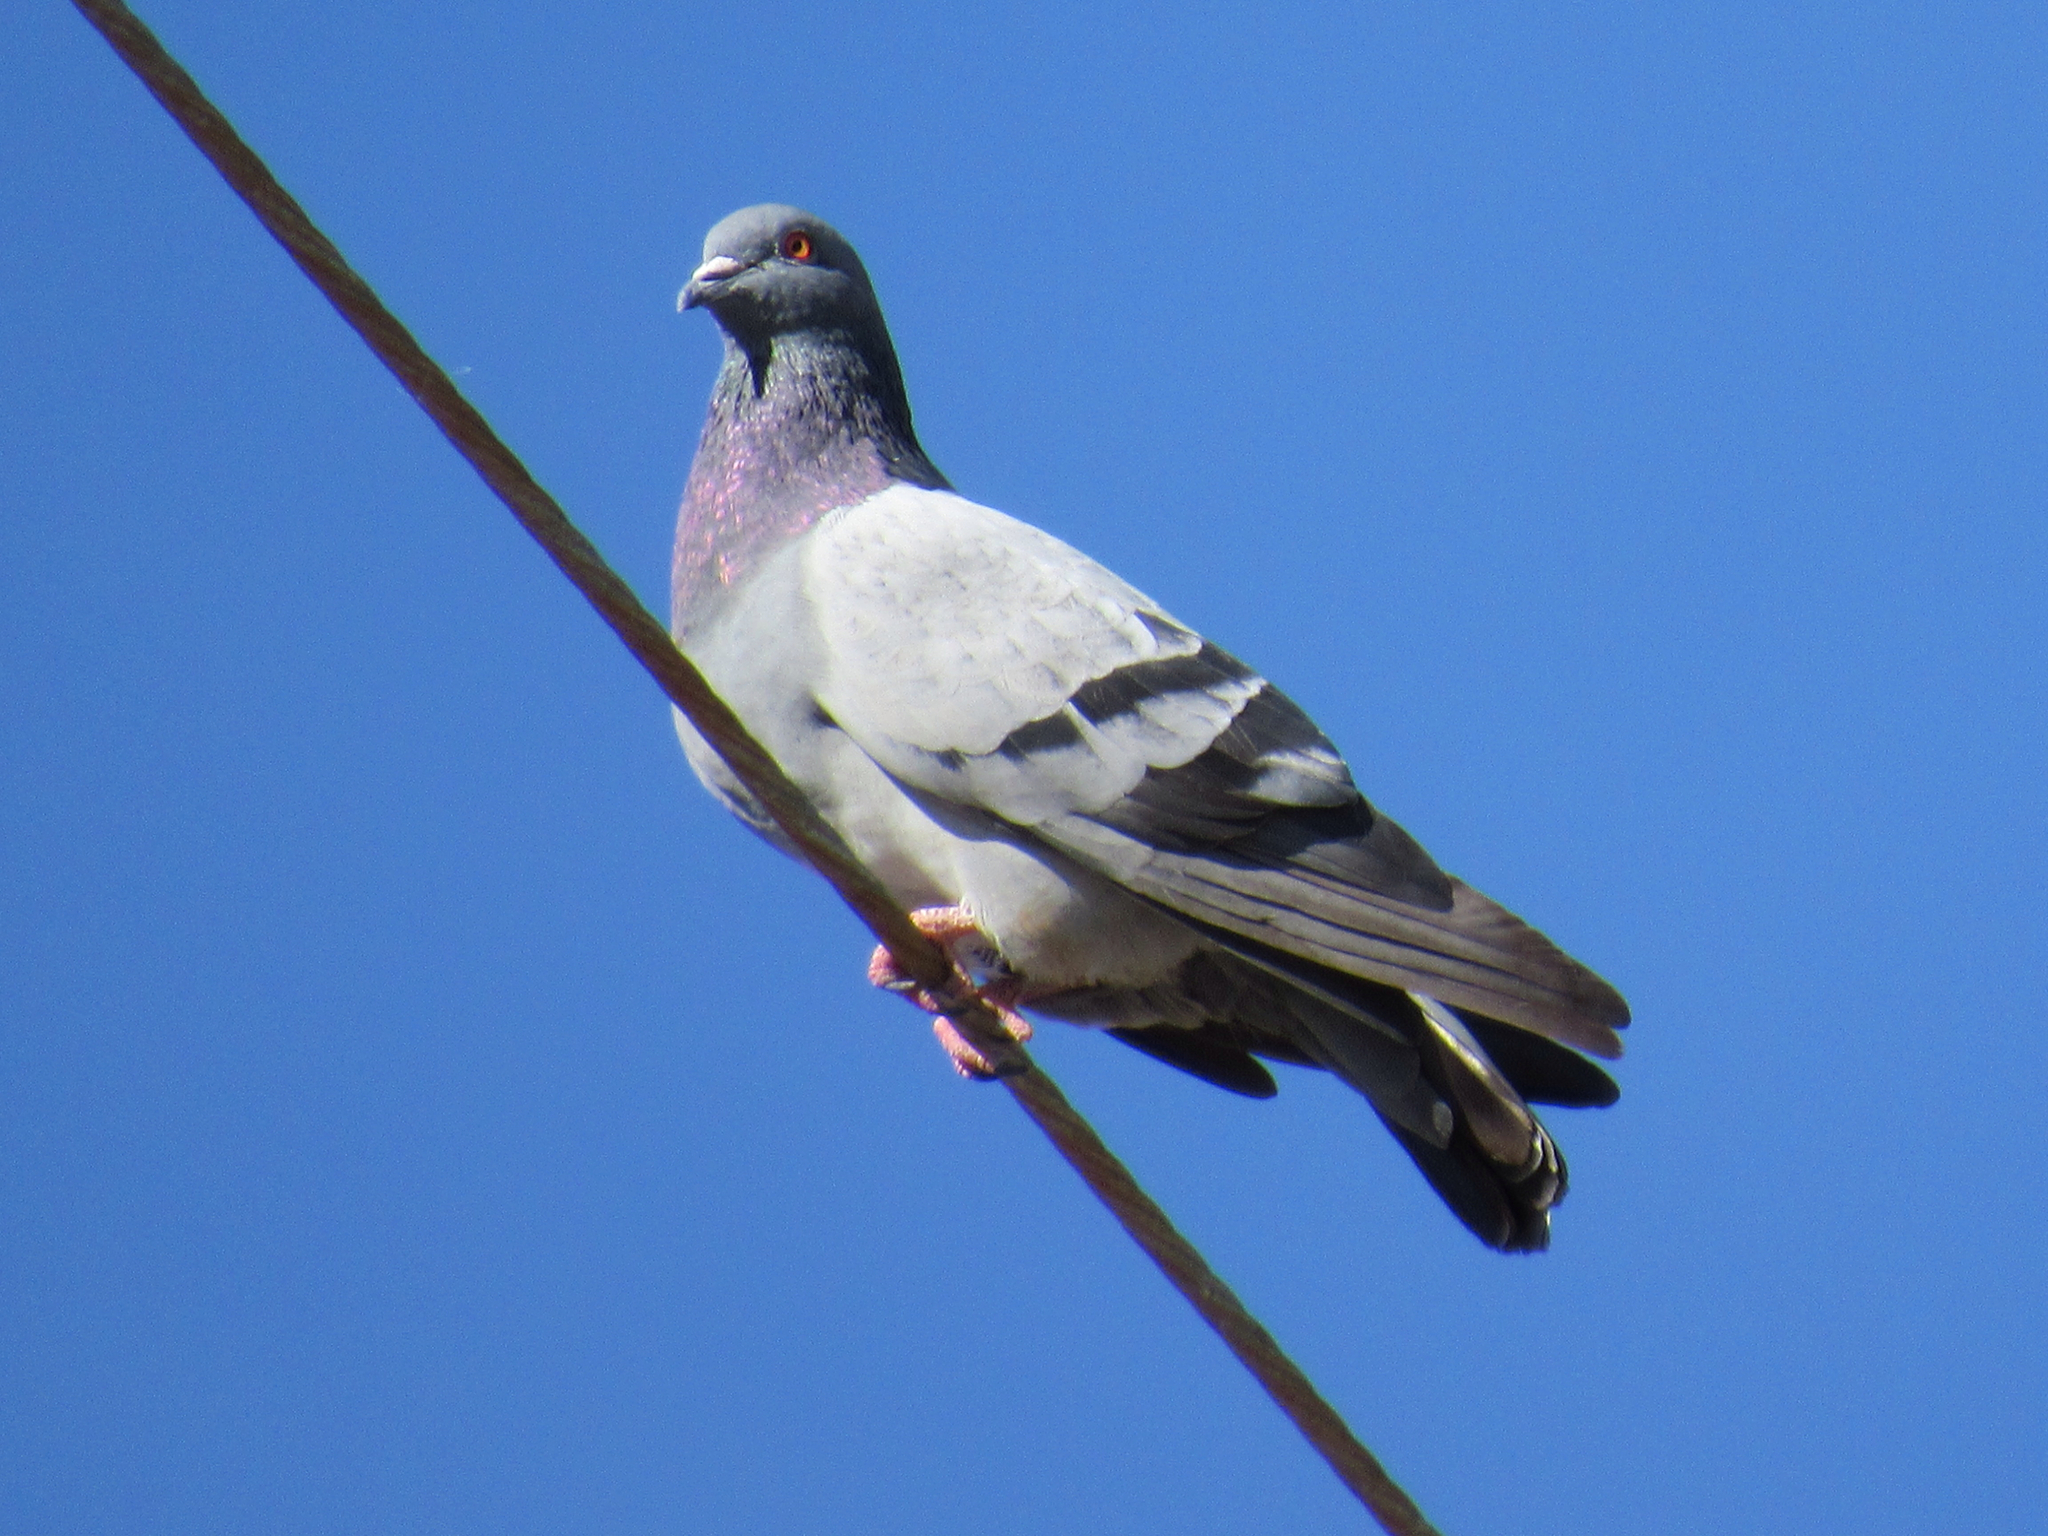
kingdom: Animalia
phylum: Chordata
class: Aves
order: Columbiformes
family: Columbidae
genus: Columba
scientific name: Columba livia
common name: Rock pigeon
